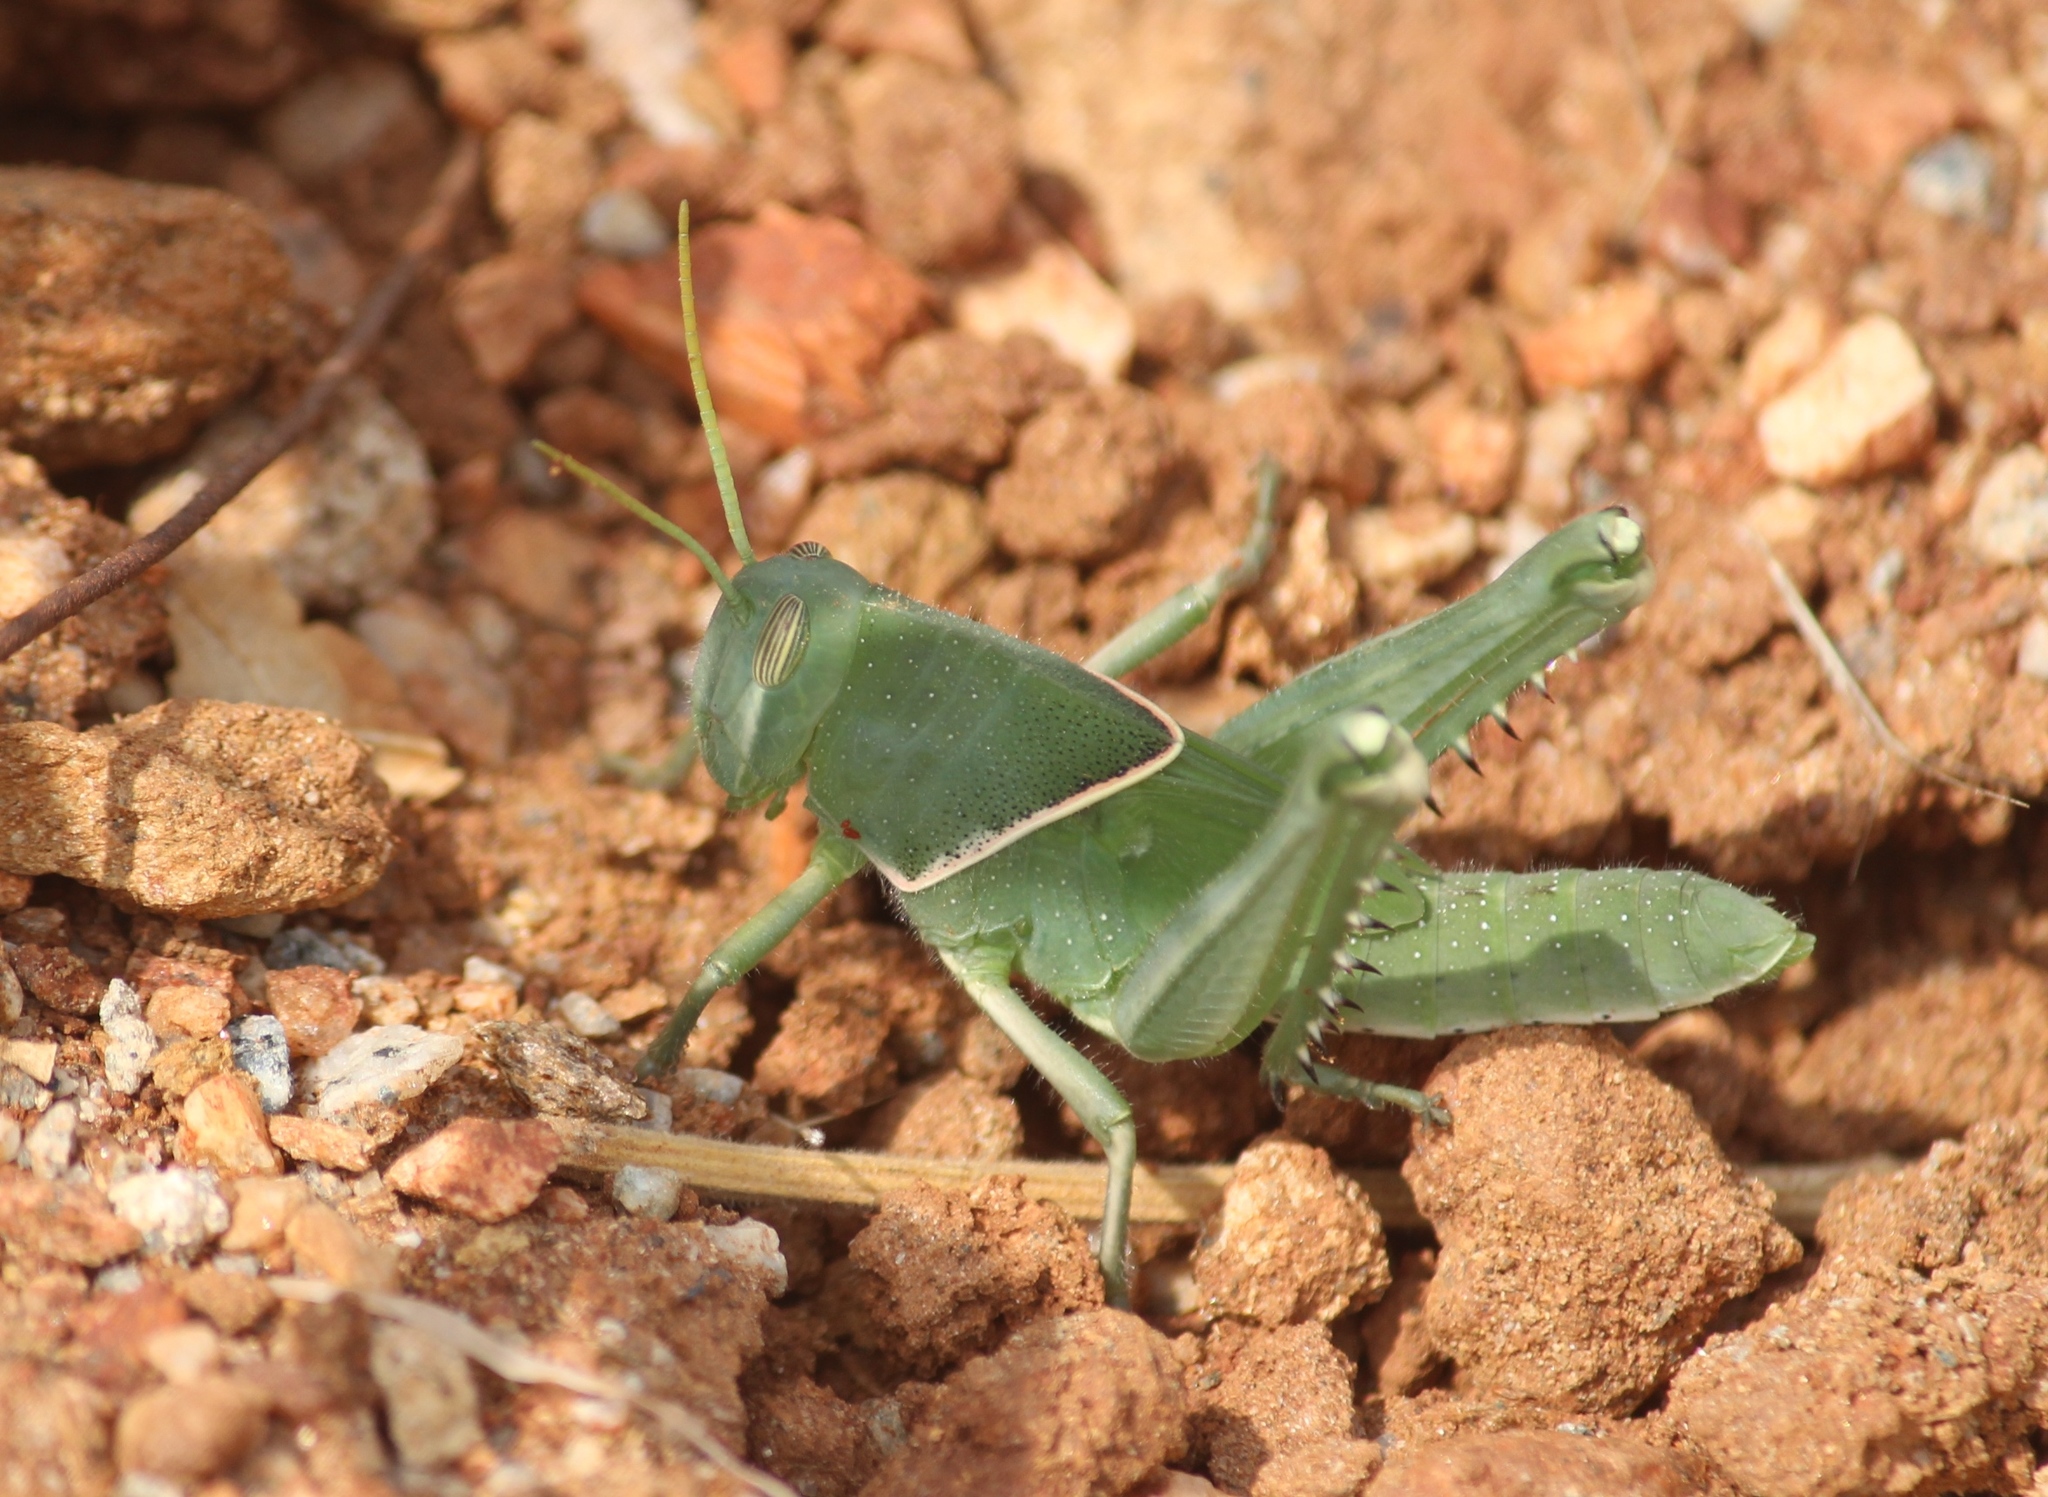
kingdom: Animalia
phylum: Arthropoda
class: Insecta
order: Orthoptera
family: Acrididae
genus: Cyrtacanthacris
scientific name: Cyrtacanthacris tatarica
